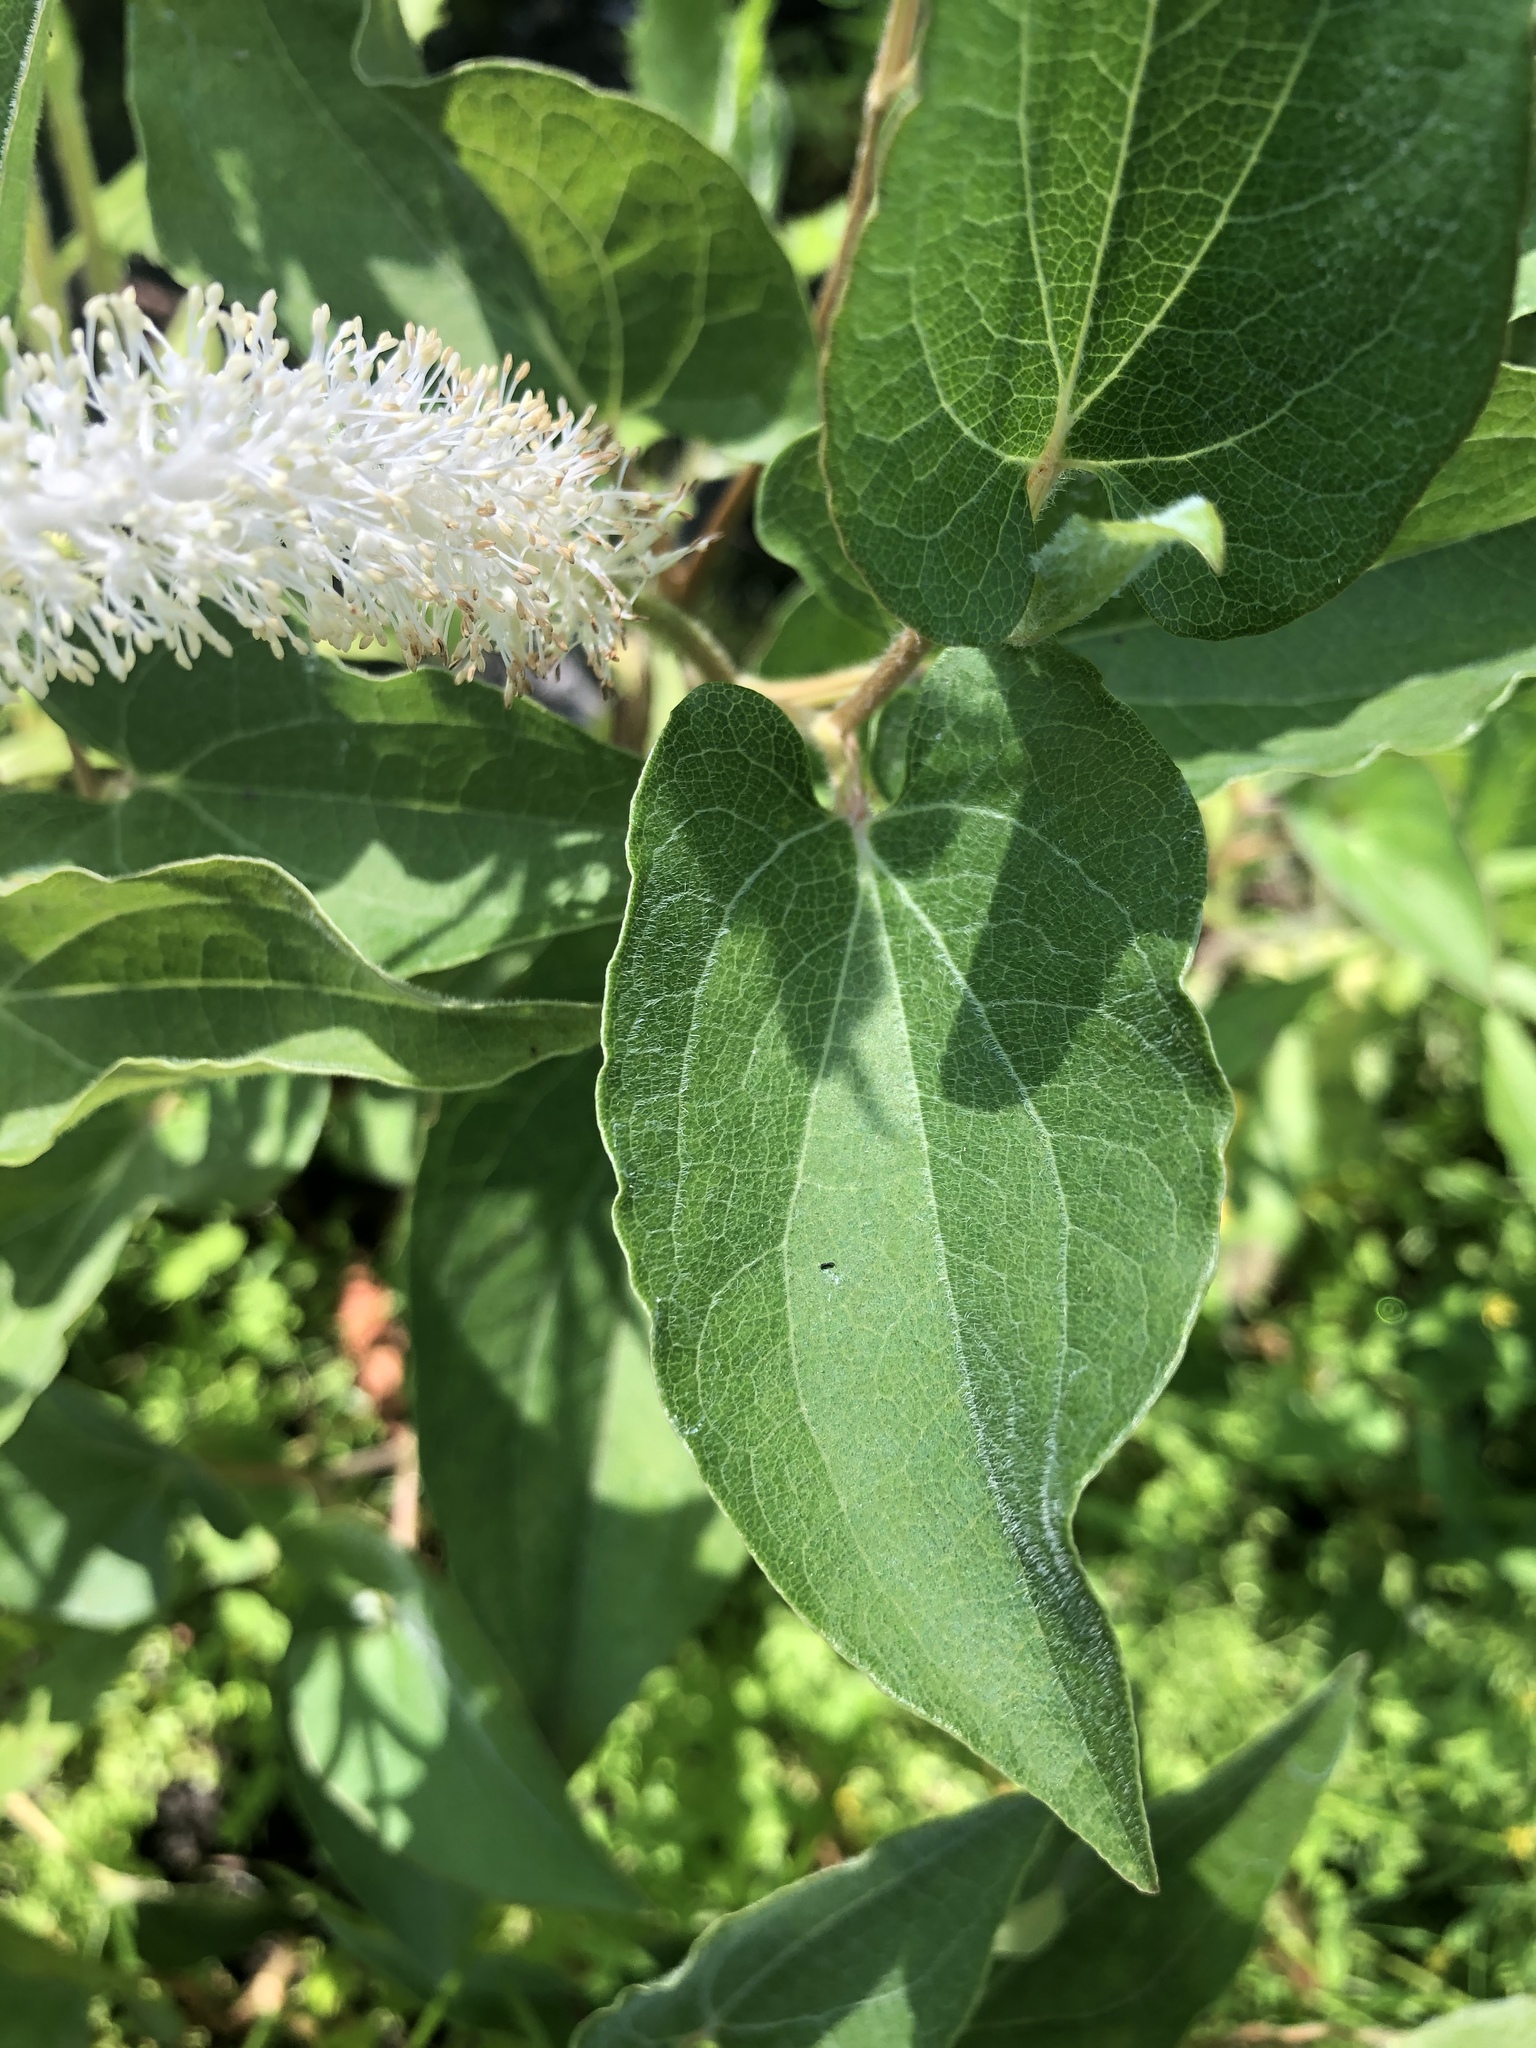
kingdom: Plantae
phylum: Tracheophyta
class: Magnoliopsida
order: Piperales
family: Saururaceae
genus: Saururus
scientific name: Saururus cernuus
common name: Lizard's-tail
